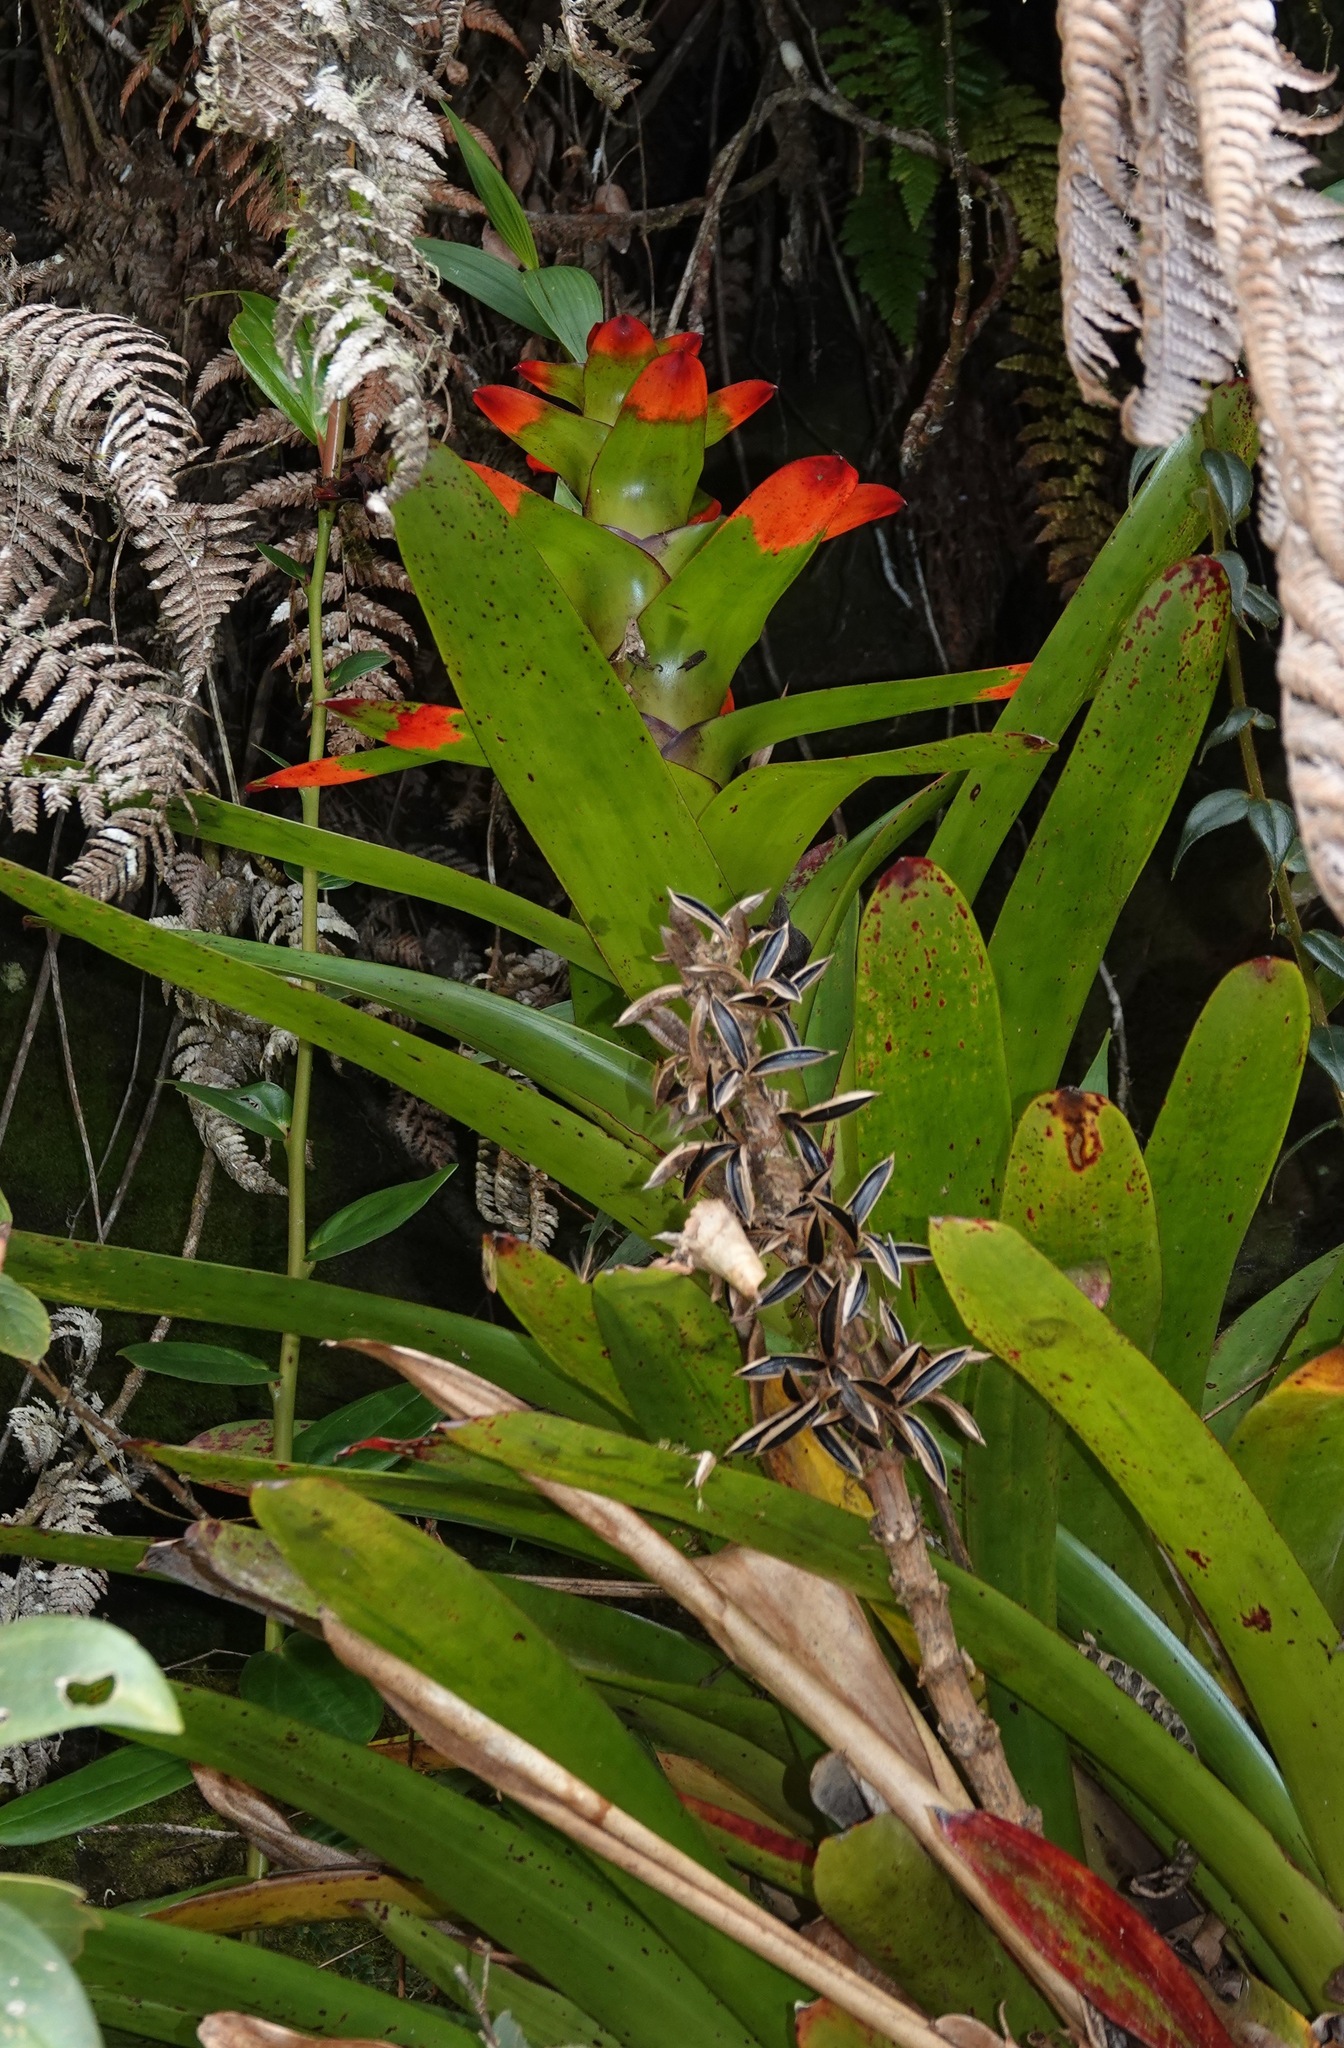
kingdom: Plantae
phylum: Tracheophyta
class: Liliopsida
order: Poales
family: Bromeliaceae
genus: Guzmania
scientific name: Guzmania gloriosa
